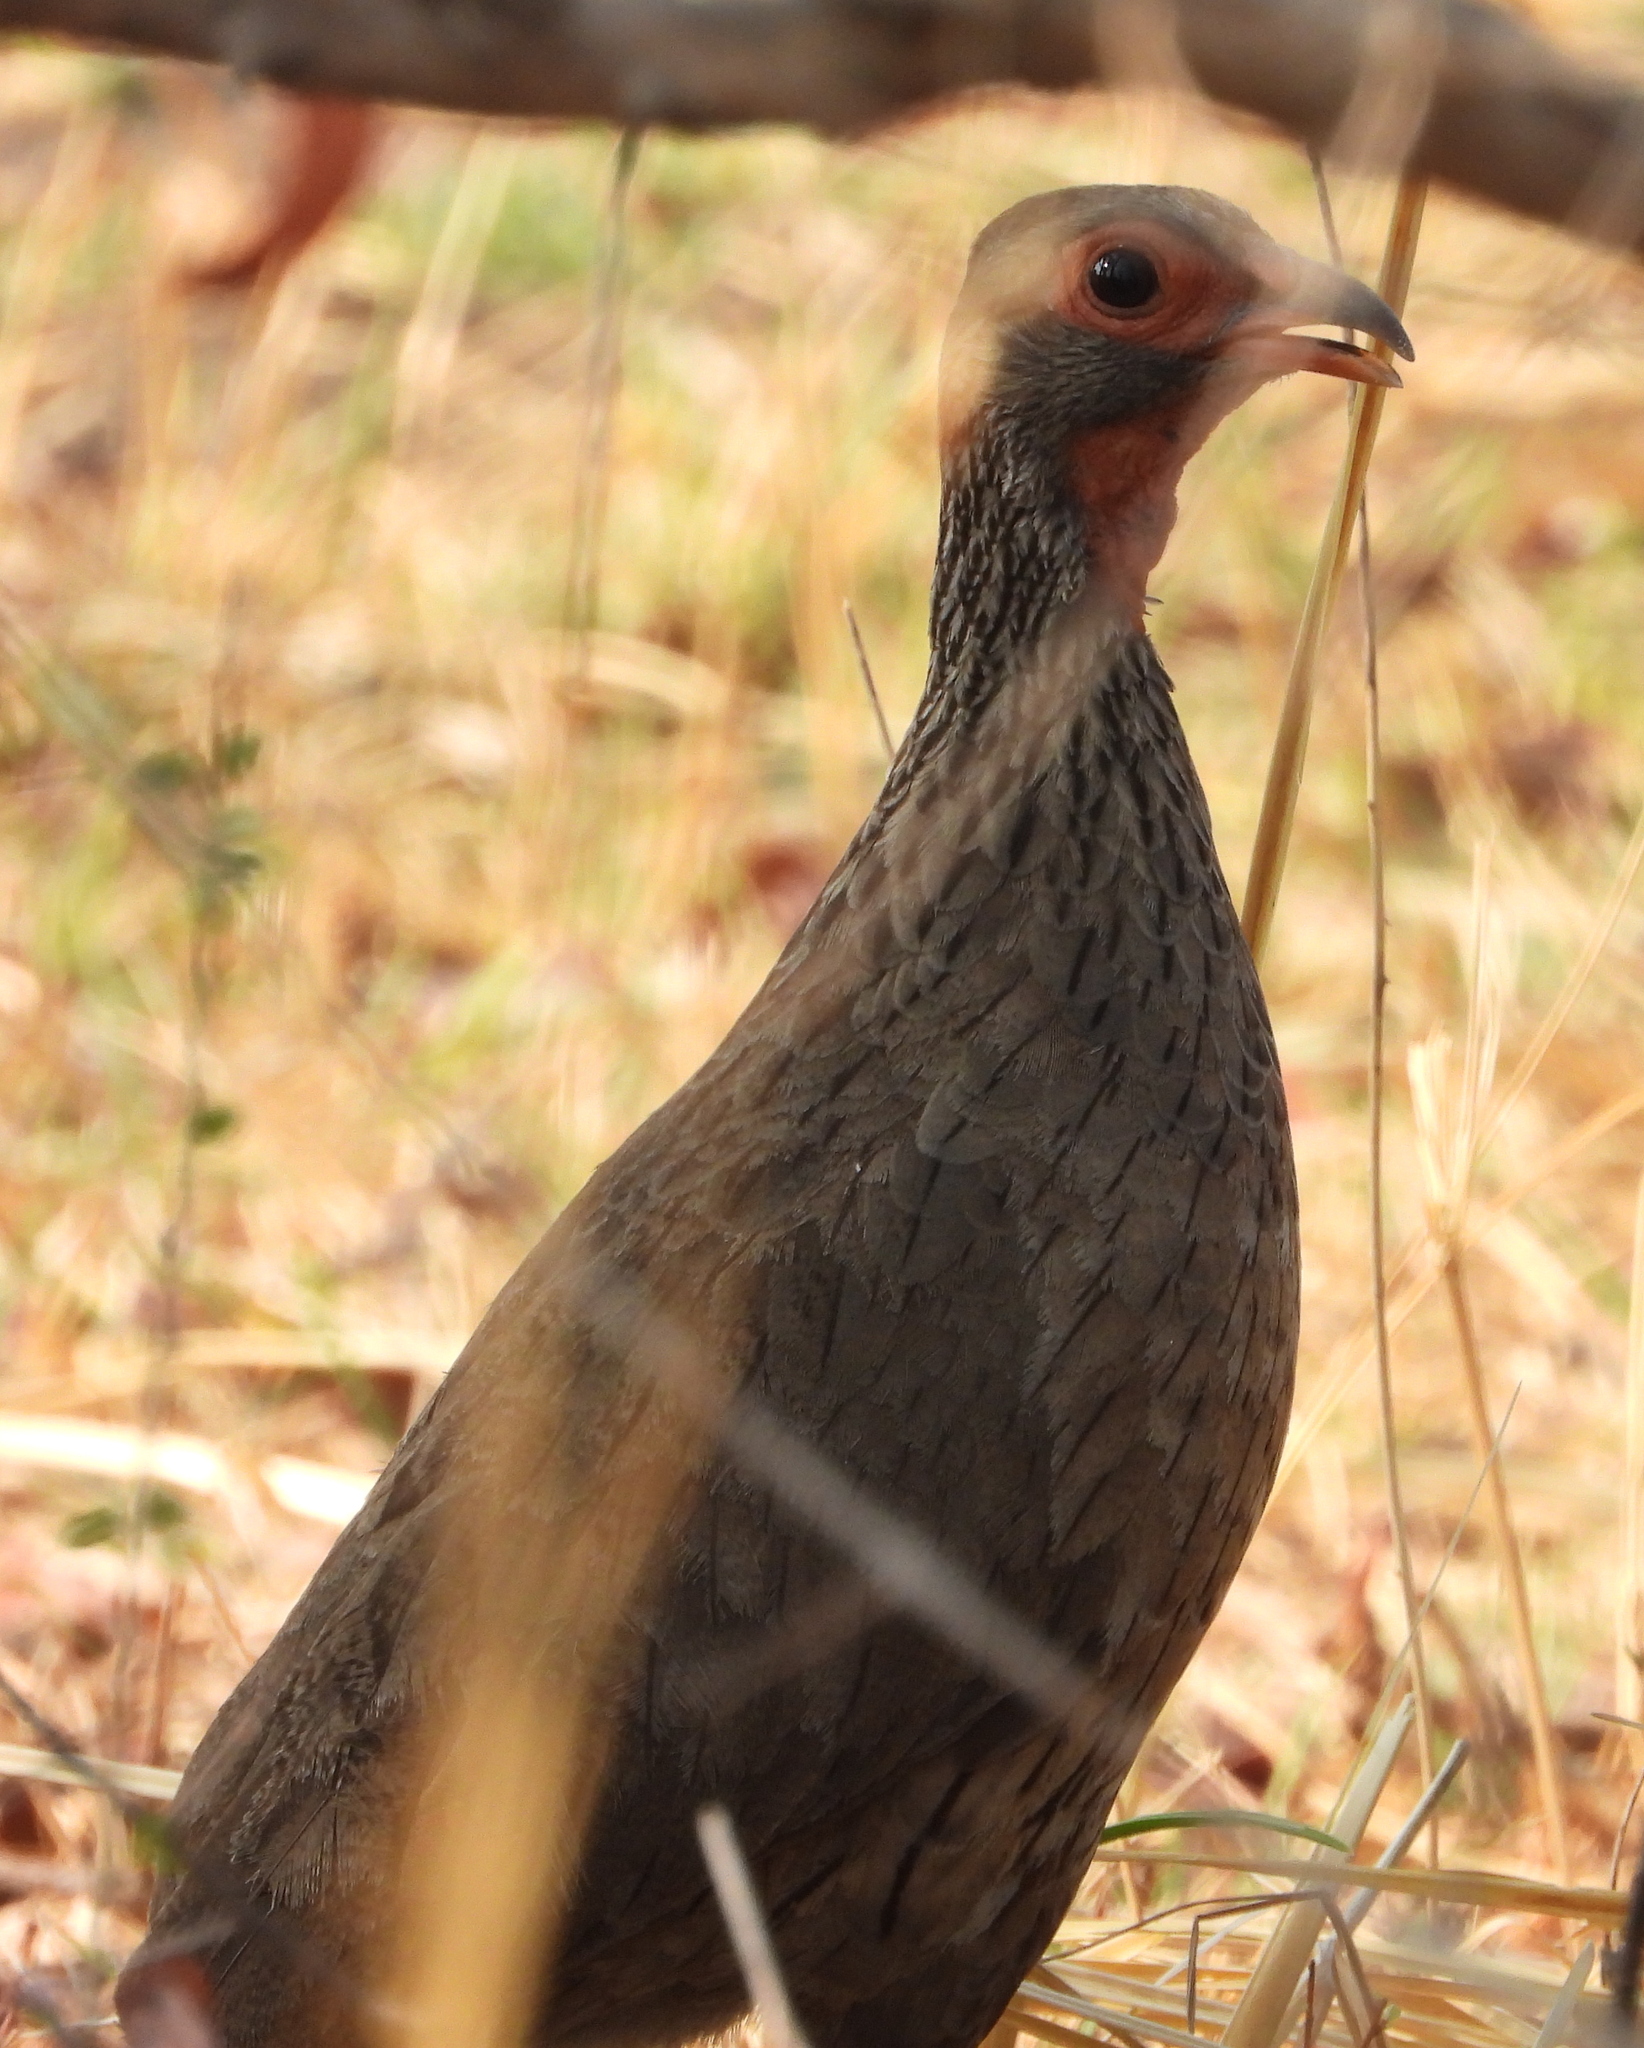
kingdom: Animalia
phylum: Chordata
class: Aves
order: Galliformes
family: Phasianidae
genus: Pternistis
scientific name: Pternistis swainsonii
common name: Swainson's spurfowl
